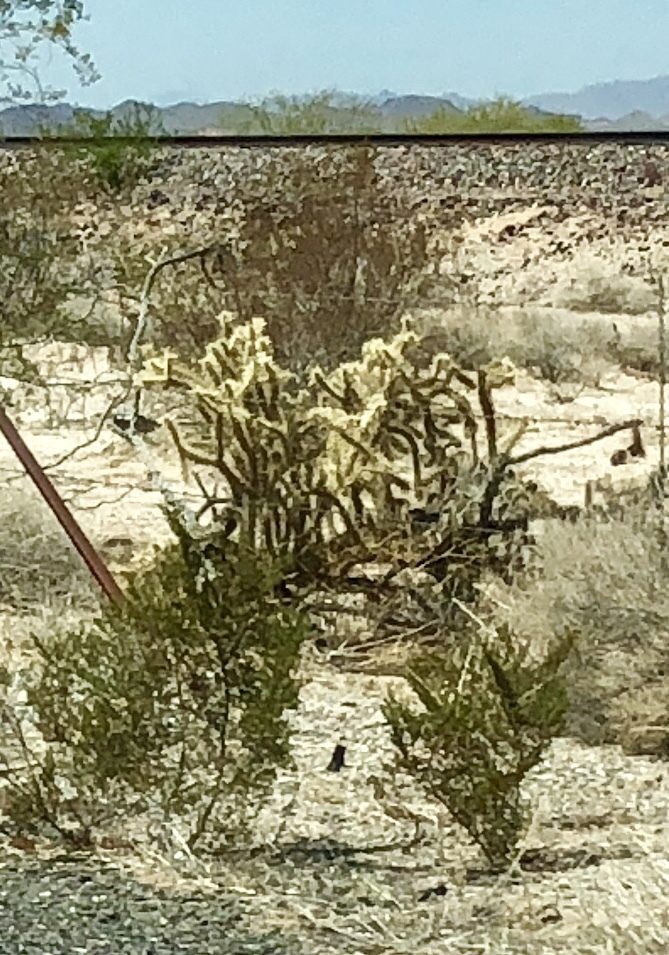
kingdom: Plantae
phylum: Tracheophyta
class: Magnoliopsida
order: Caryophyllales
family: Cactaceae
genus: Cylindropuntia
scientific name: Cylindropuntia echinocarpa
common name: Ground cholla
